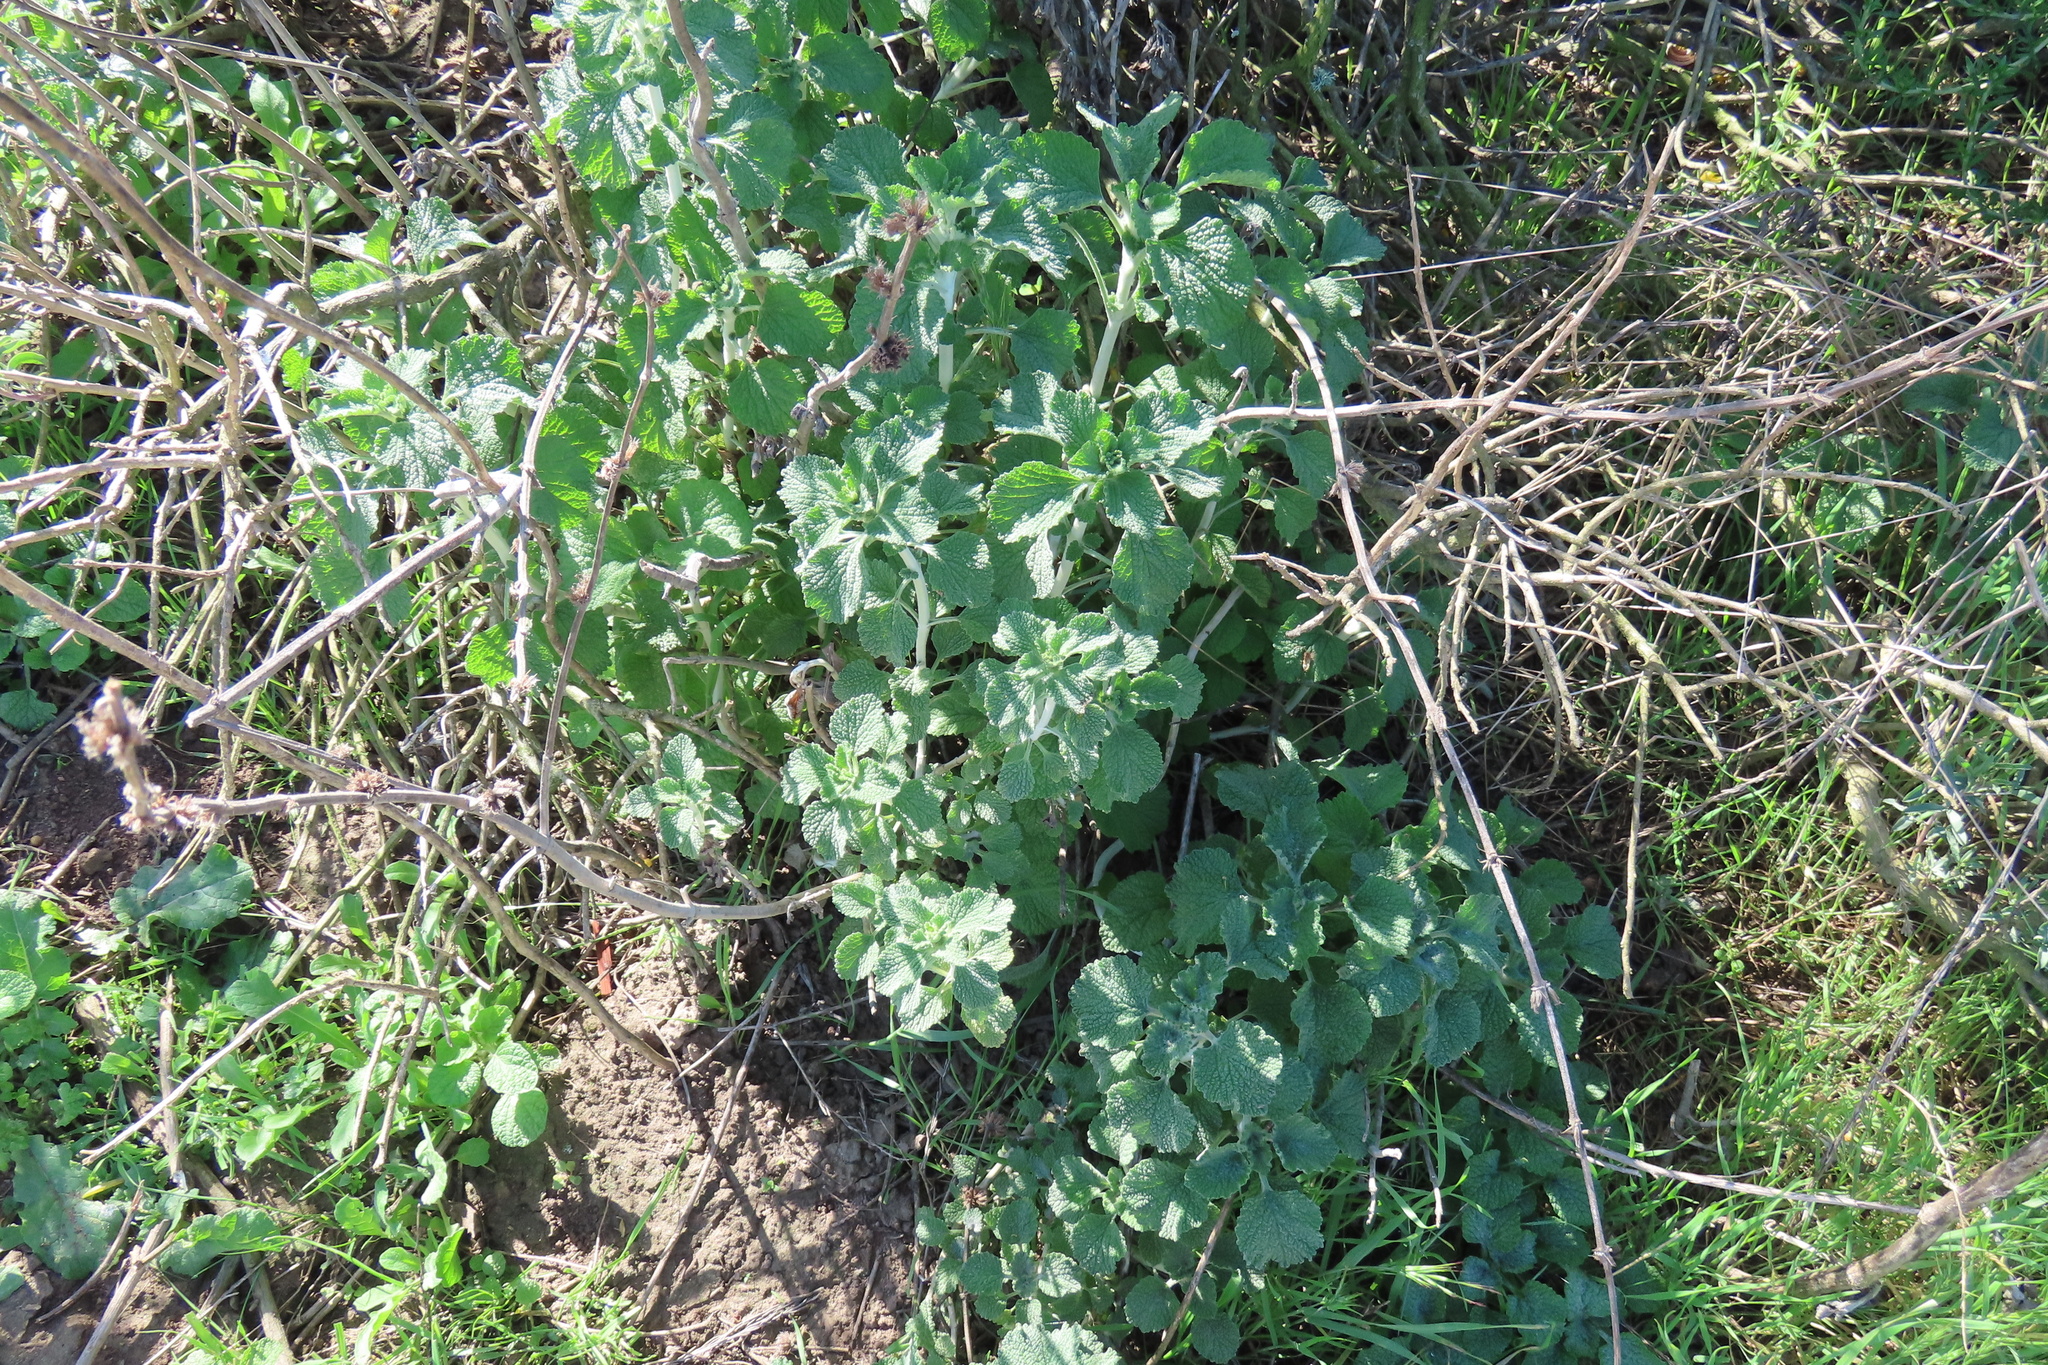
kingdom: Plantae
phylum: Tracheophyta
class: Magnoliopsida
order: Lamiales
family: Lamiaceae
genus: Marrubium
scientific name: Marrubium vulgare
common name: Horehound
